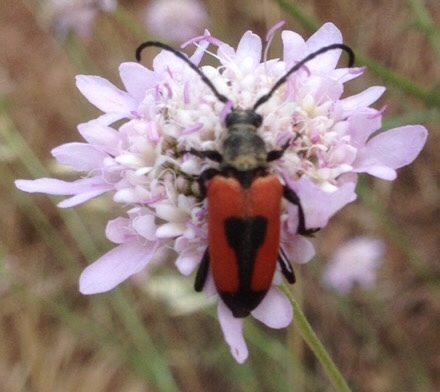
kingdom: Animalia
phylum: Arthropoda
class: Insecta
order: Coleoptera
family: Cerambycidae
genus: Stictoleptura
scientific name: Stictoleptura cordigera
